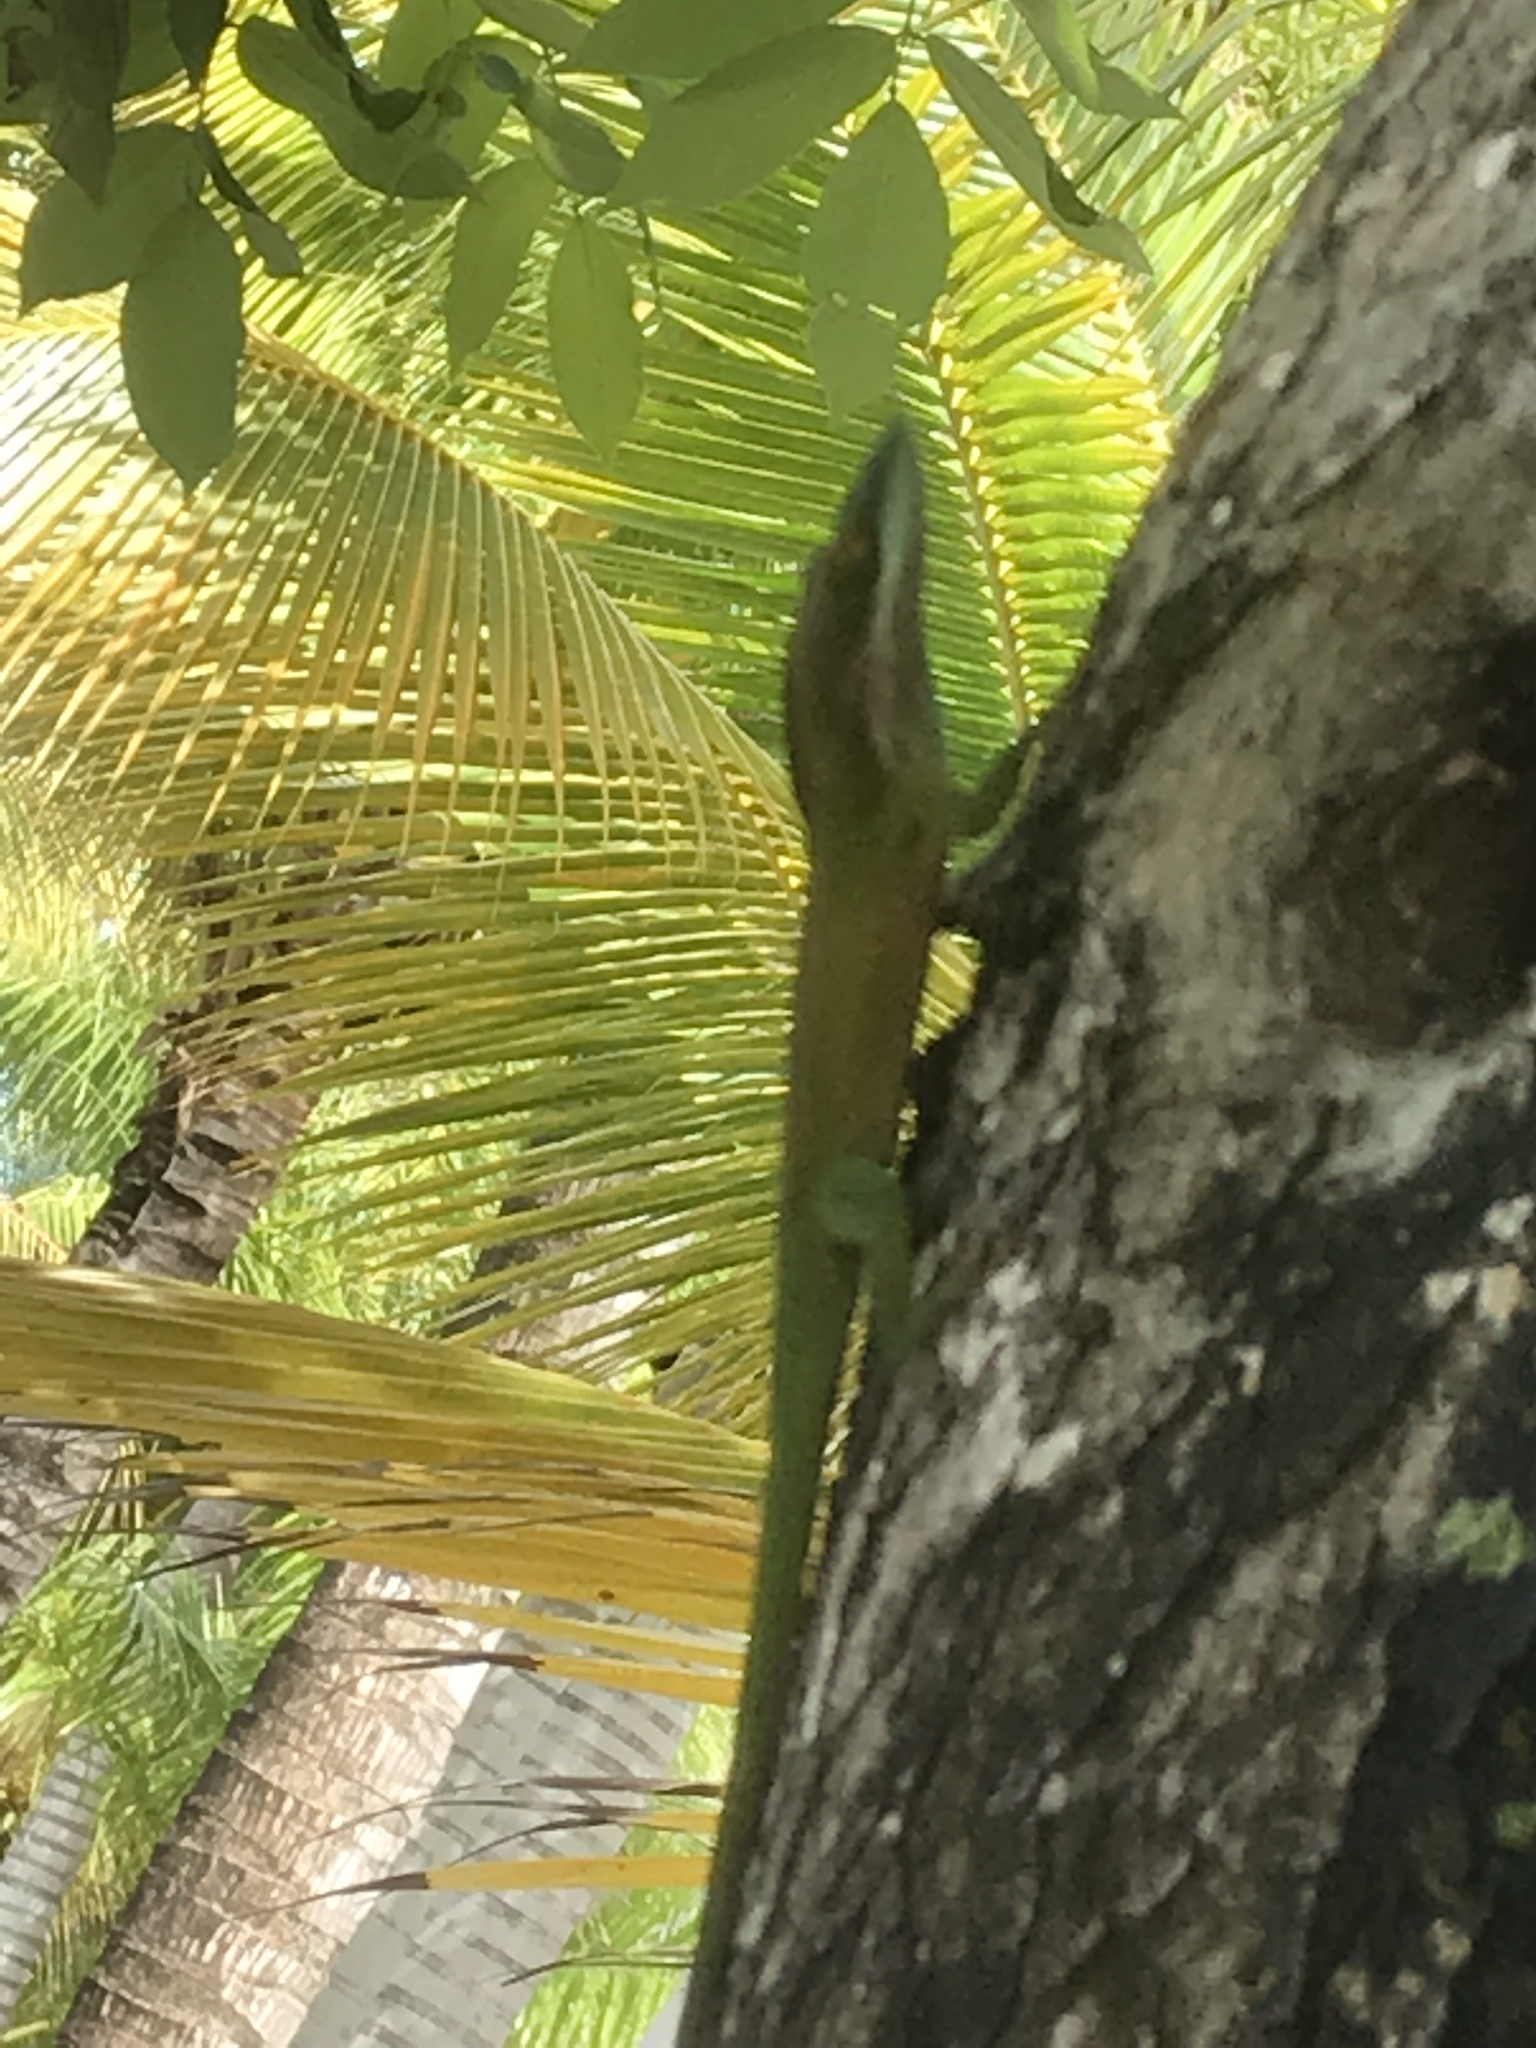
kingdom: Animalia
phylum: Chordata
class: Squamata
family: Dactyloidae
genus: Anolis
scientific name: Anolis allisoni
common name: Allison's anole
